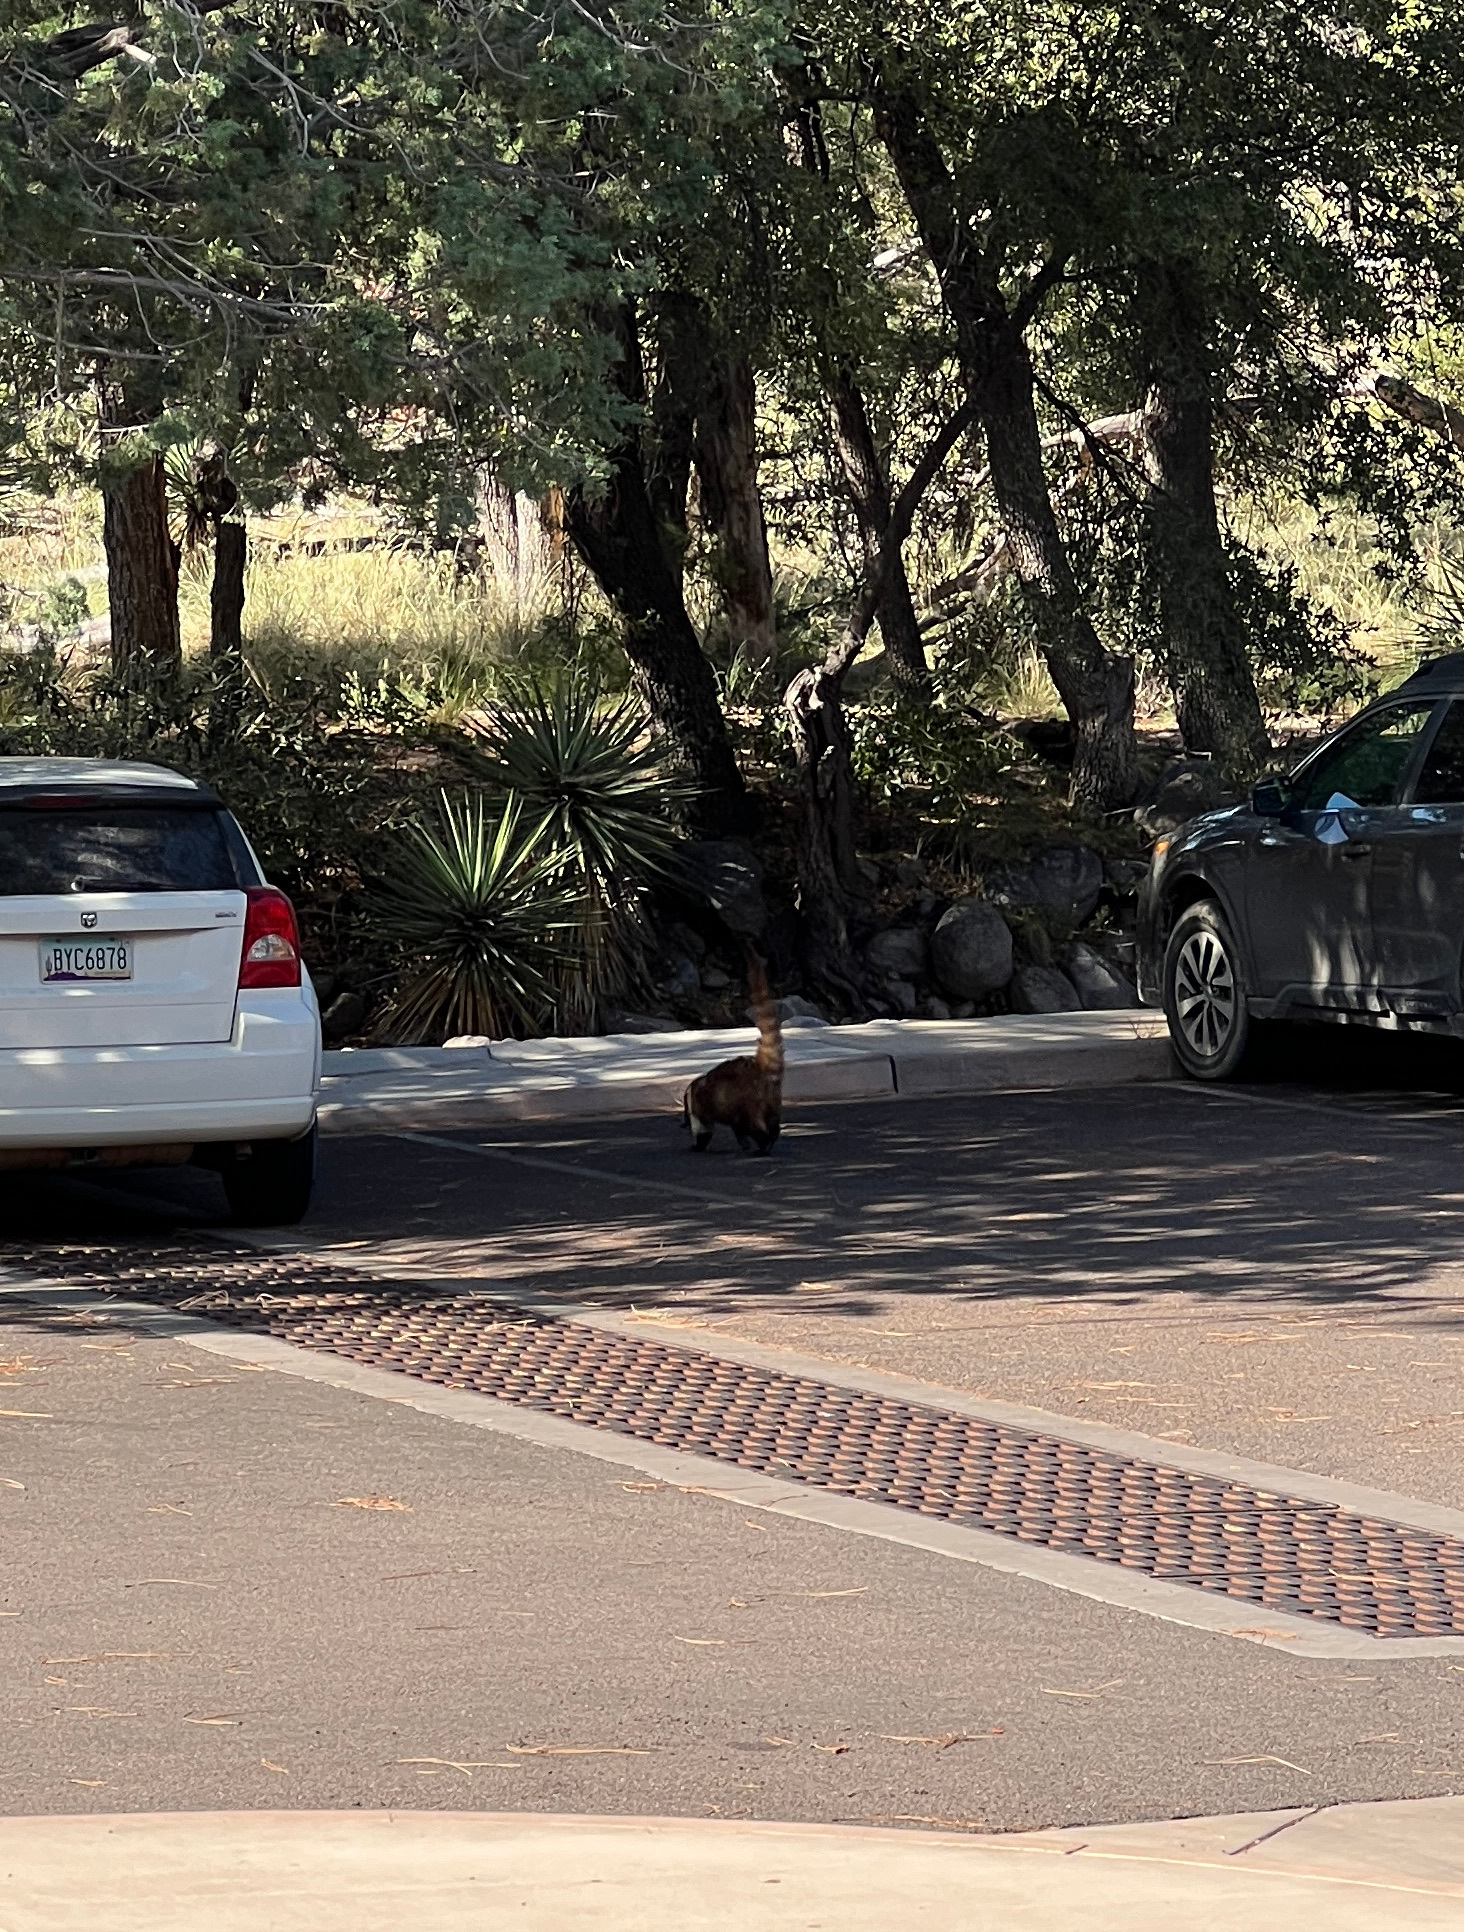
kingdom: Animalia
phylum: Chordata
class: Mammalia
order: Carnivora
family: Procyonidae
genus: Nasua
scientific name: Nasua narica
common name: White-nosed coati
